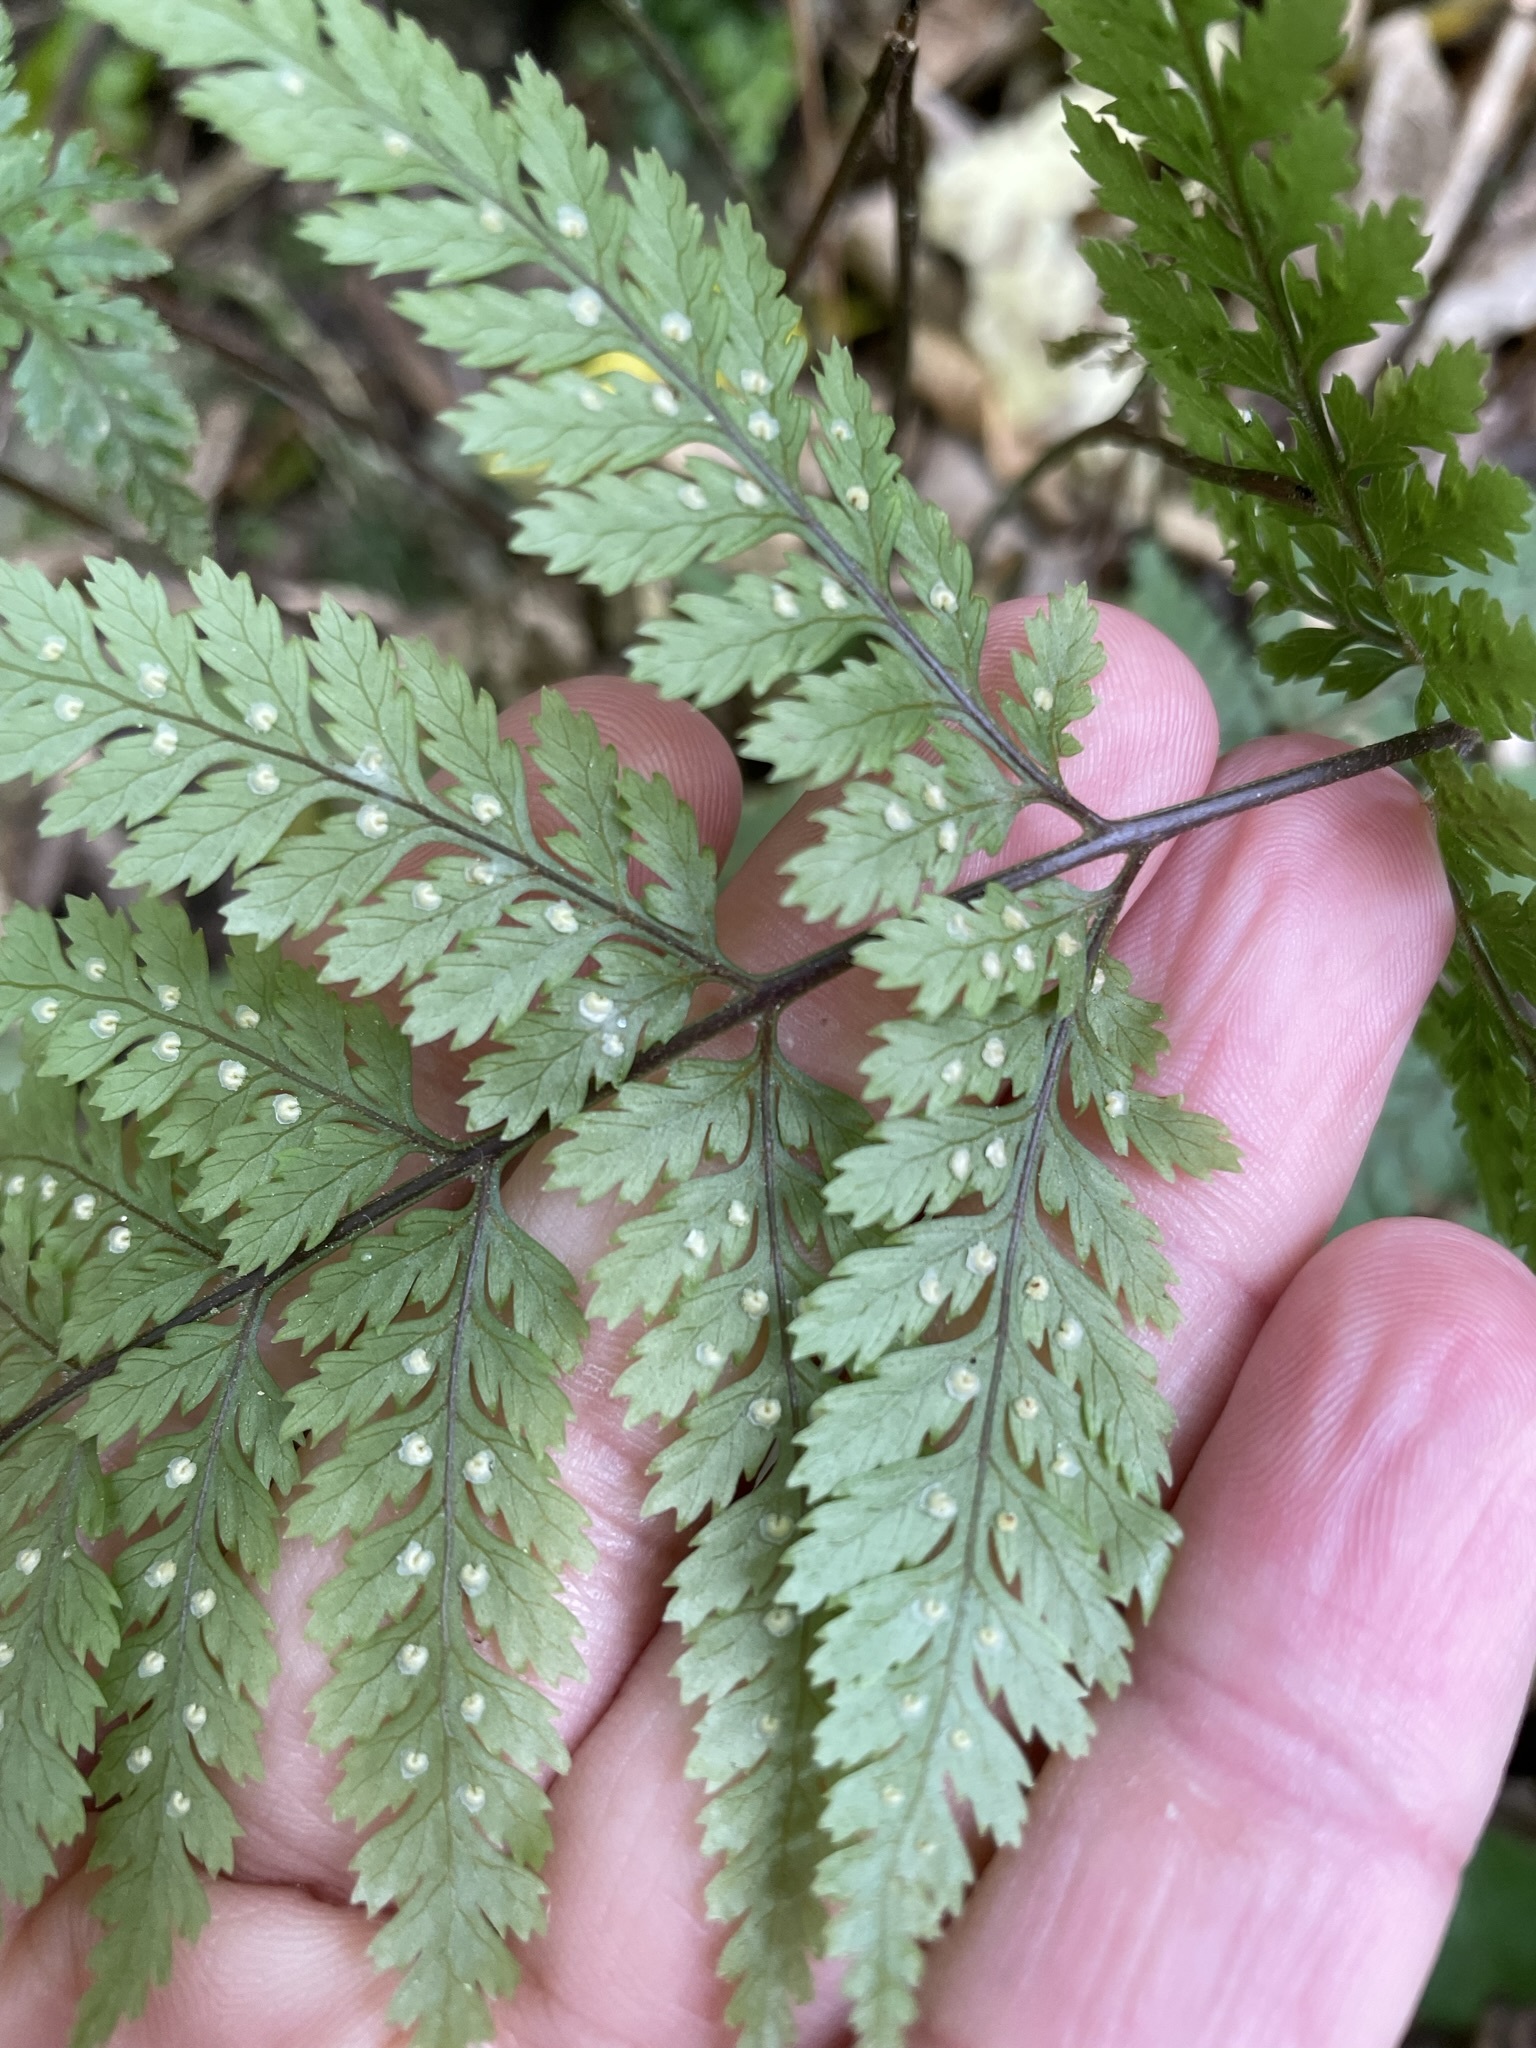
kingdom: Plantae
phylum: Tracheophyta
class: Polypodiopsida
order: Polypodiales
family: Dryopteridaceae
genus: Parapolystichum
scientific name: Parapolystichum glabellum
